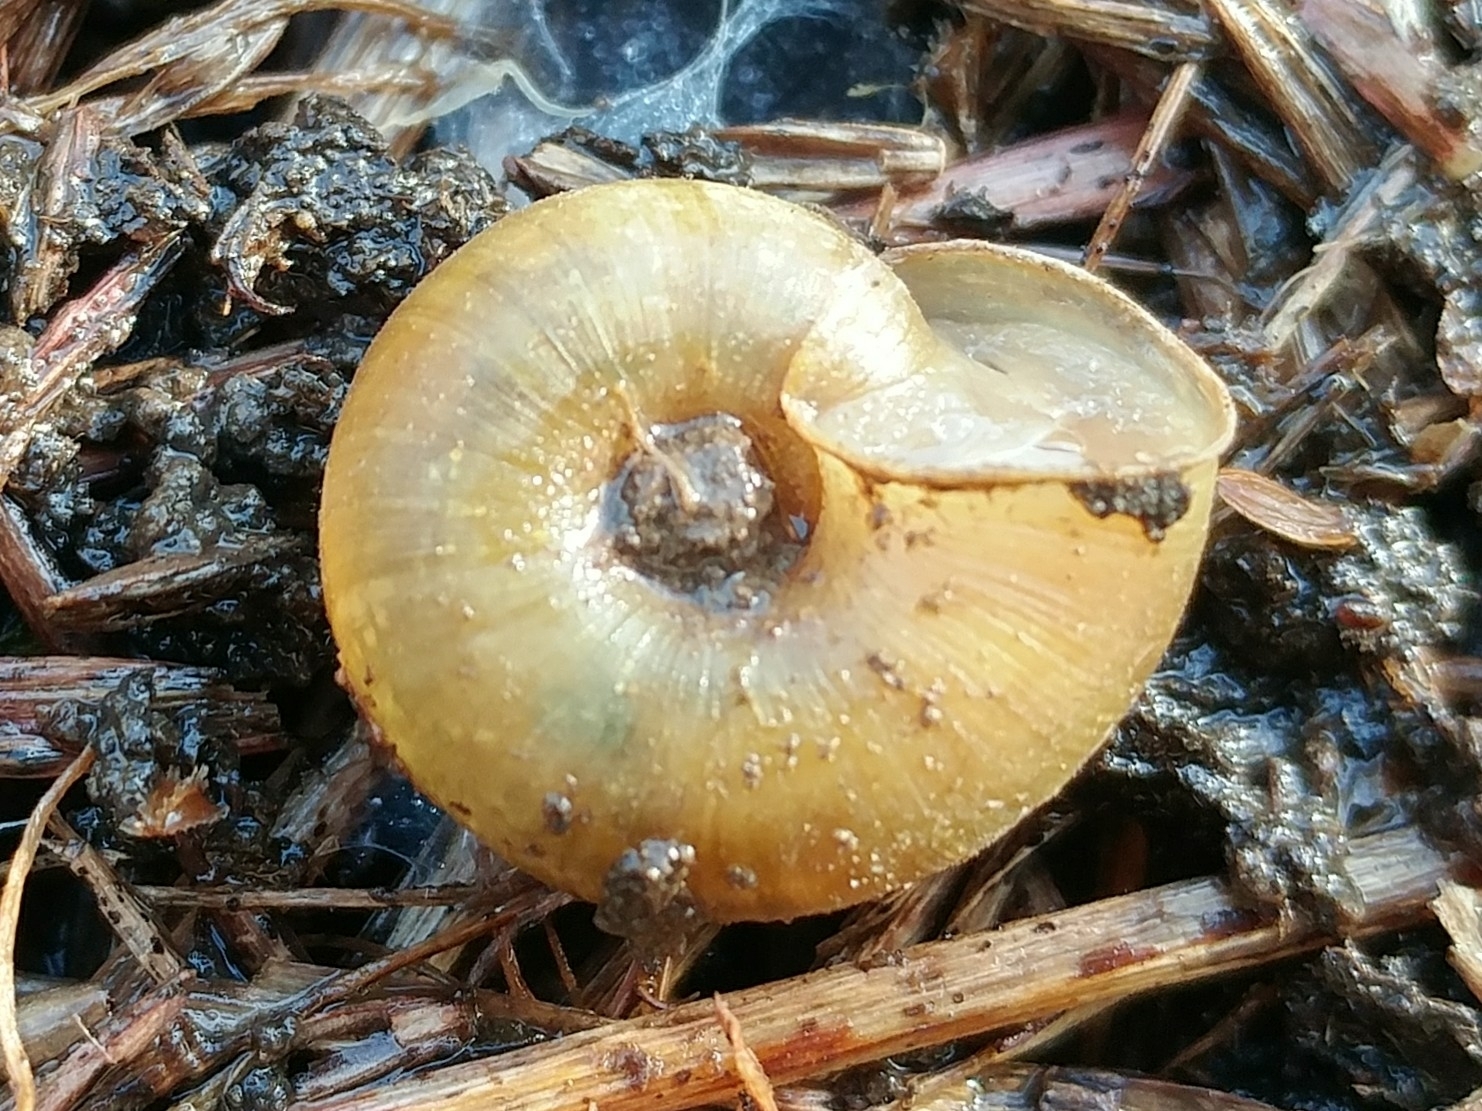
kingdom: Animalia
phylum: Mollusca
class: Gastropoda
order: Stylommatophora
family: Haplotrematidae
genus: Ancotrema
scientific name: Ancotrema sportella
